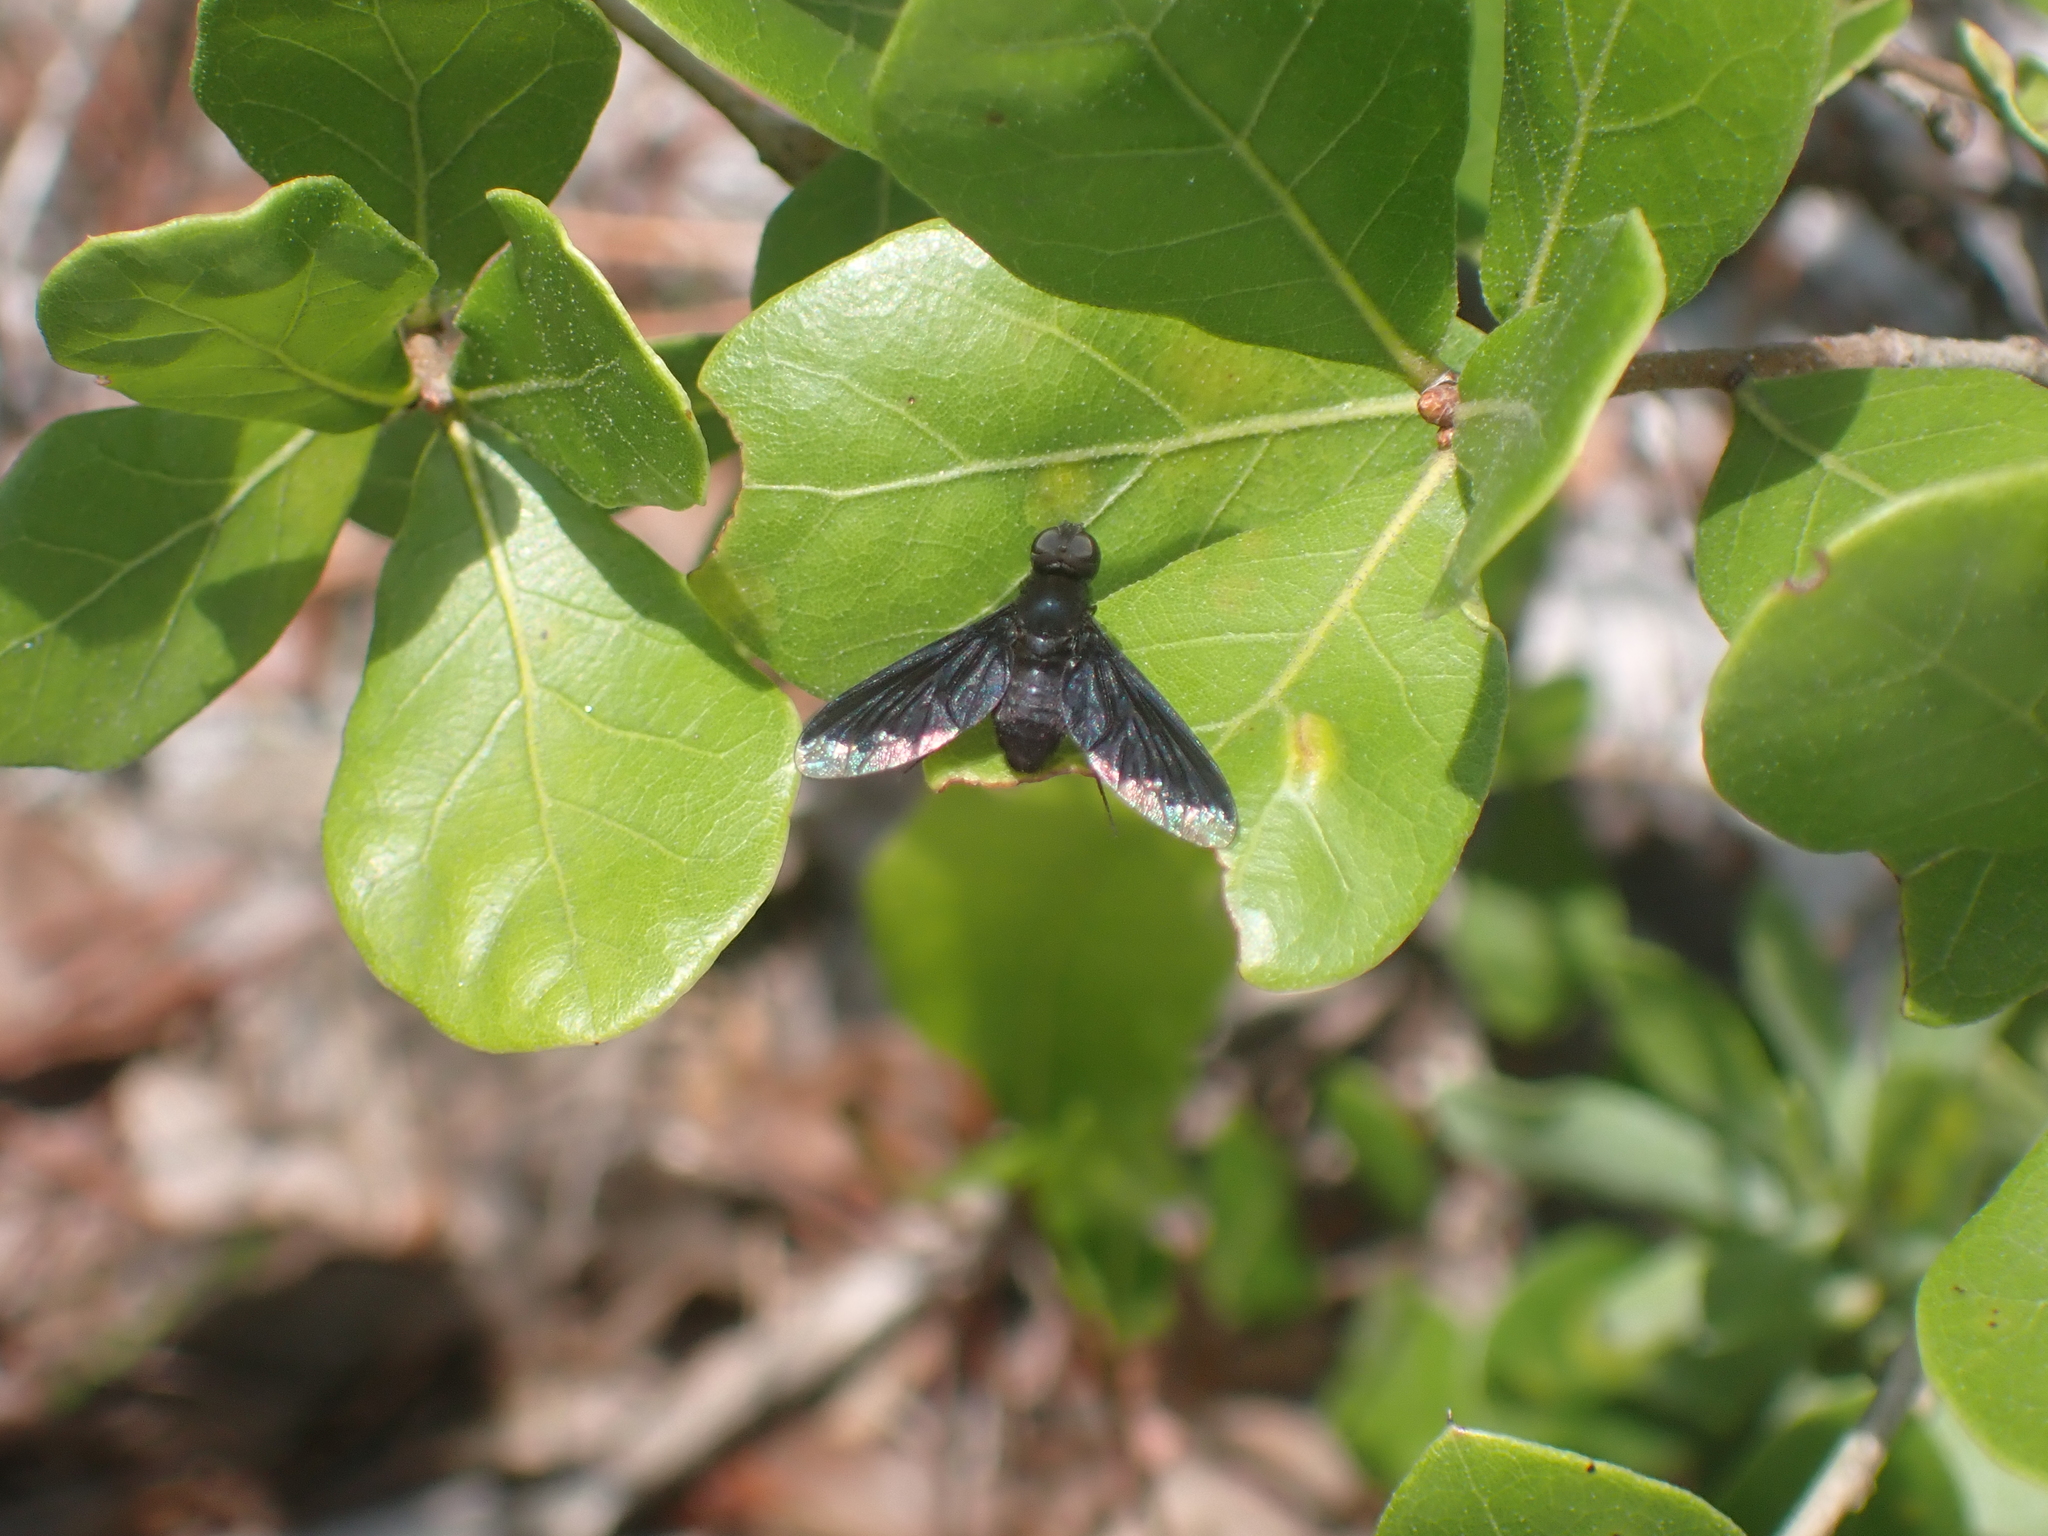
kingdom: Animalia
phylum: Arthropoda
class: Insecta
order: Diptera
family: Bombyliidae
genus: Anthrax
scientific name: Anthrax analis
